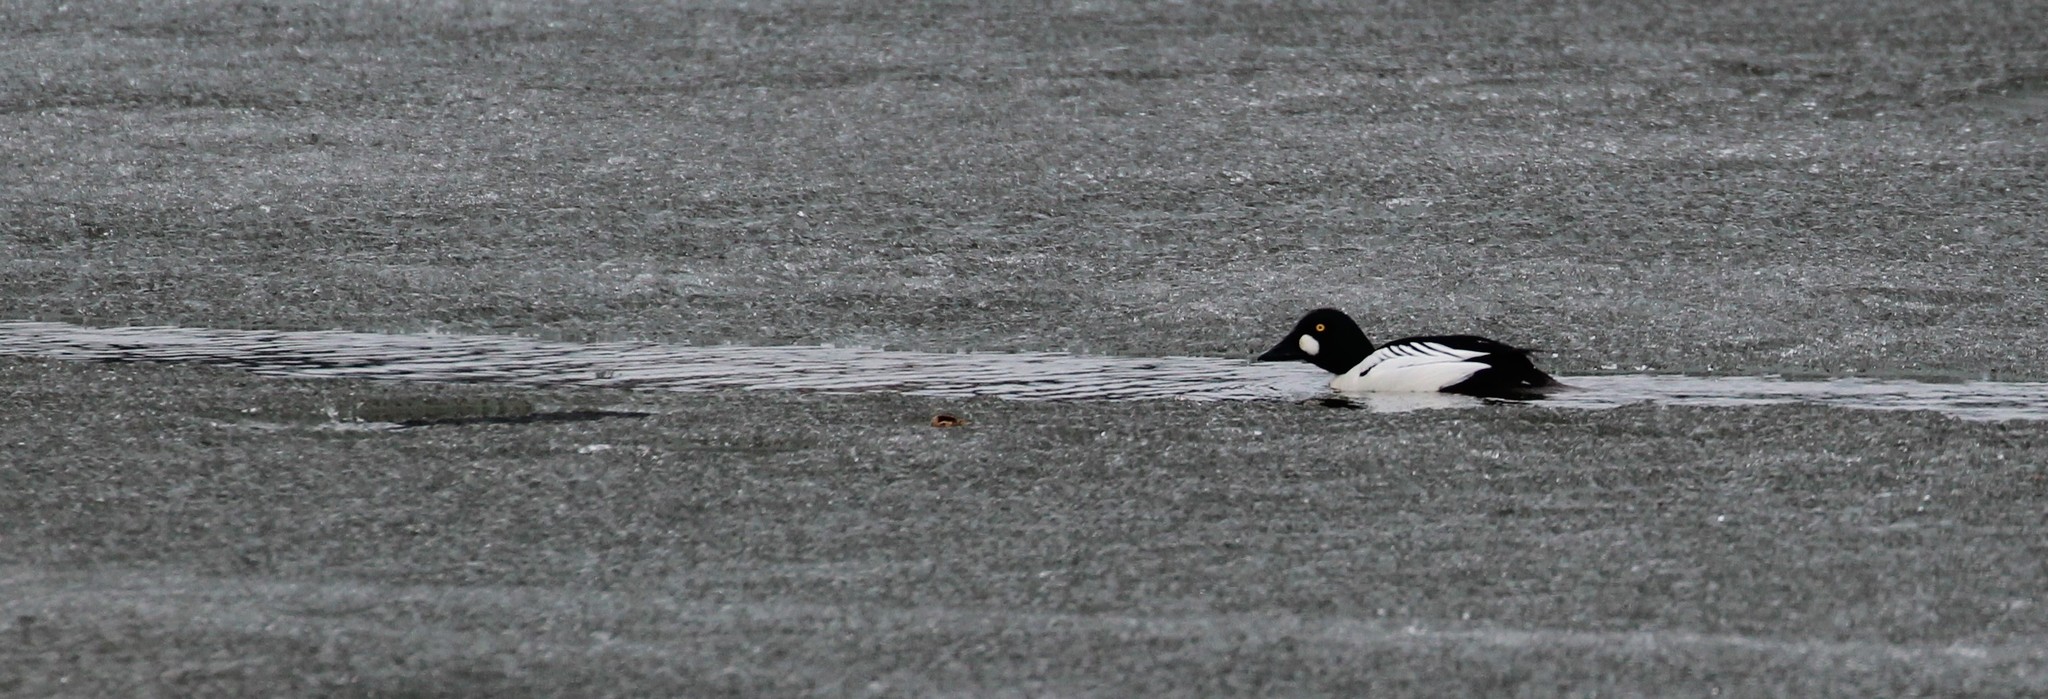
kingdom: Animalia
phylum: Chordata
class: Aves
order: Anseriformes
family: Anatidae
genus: Bucephala
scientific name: Bucephala clangula
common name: Common goldeneye
